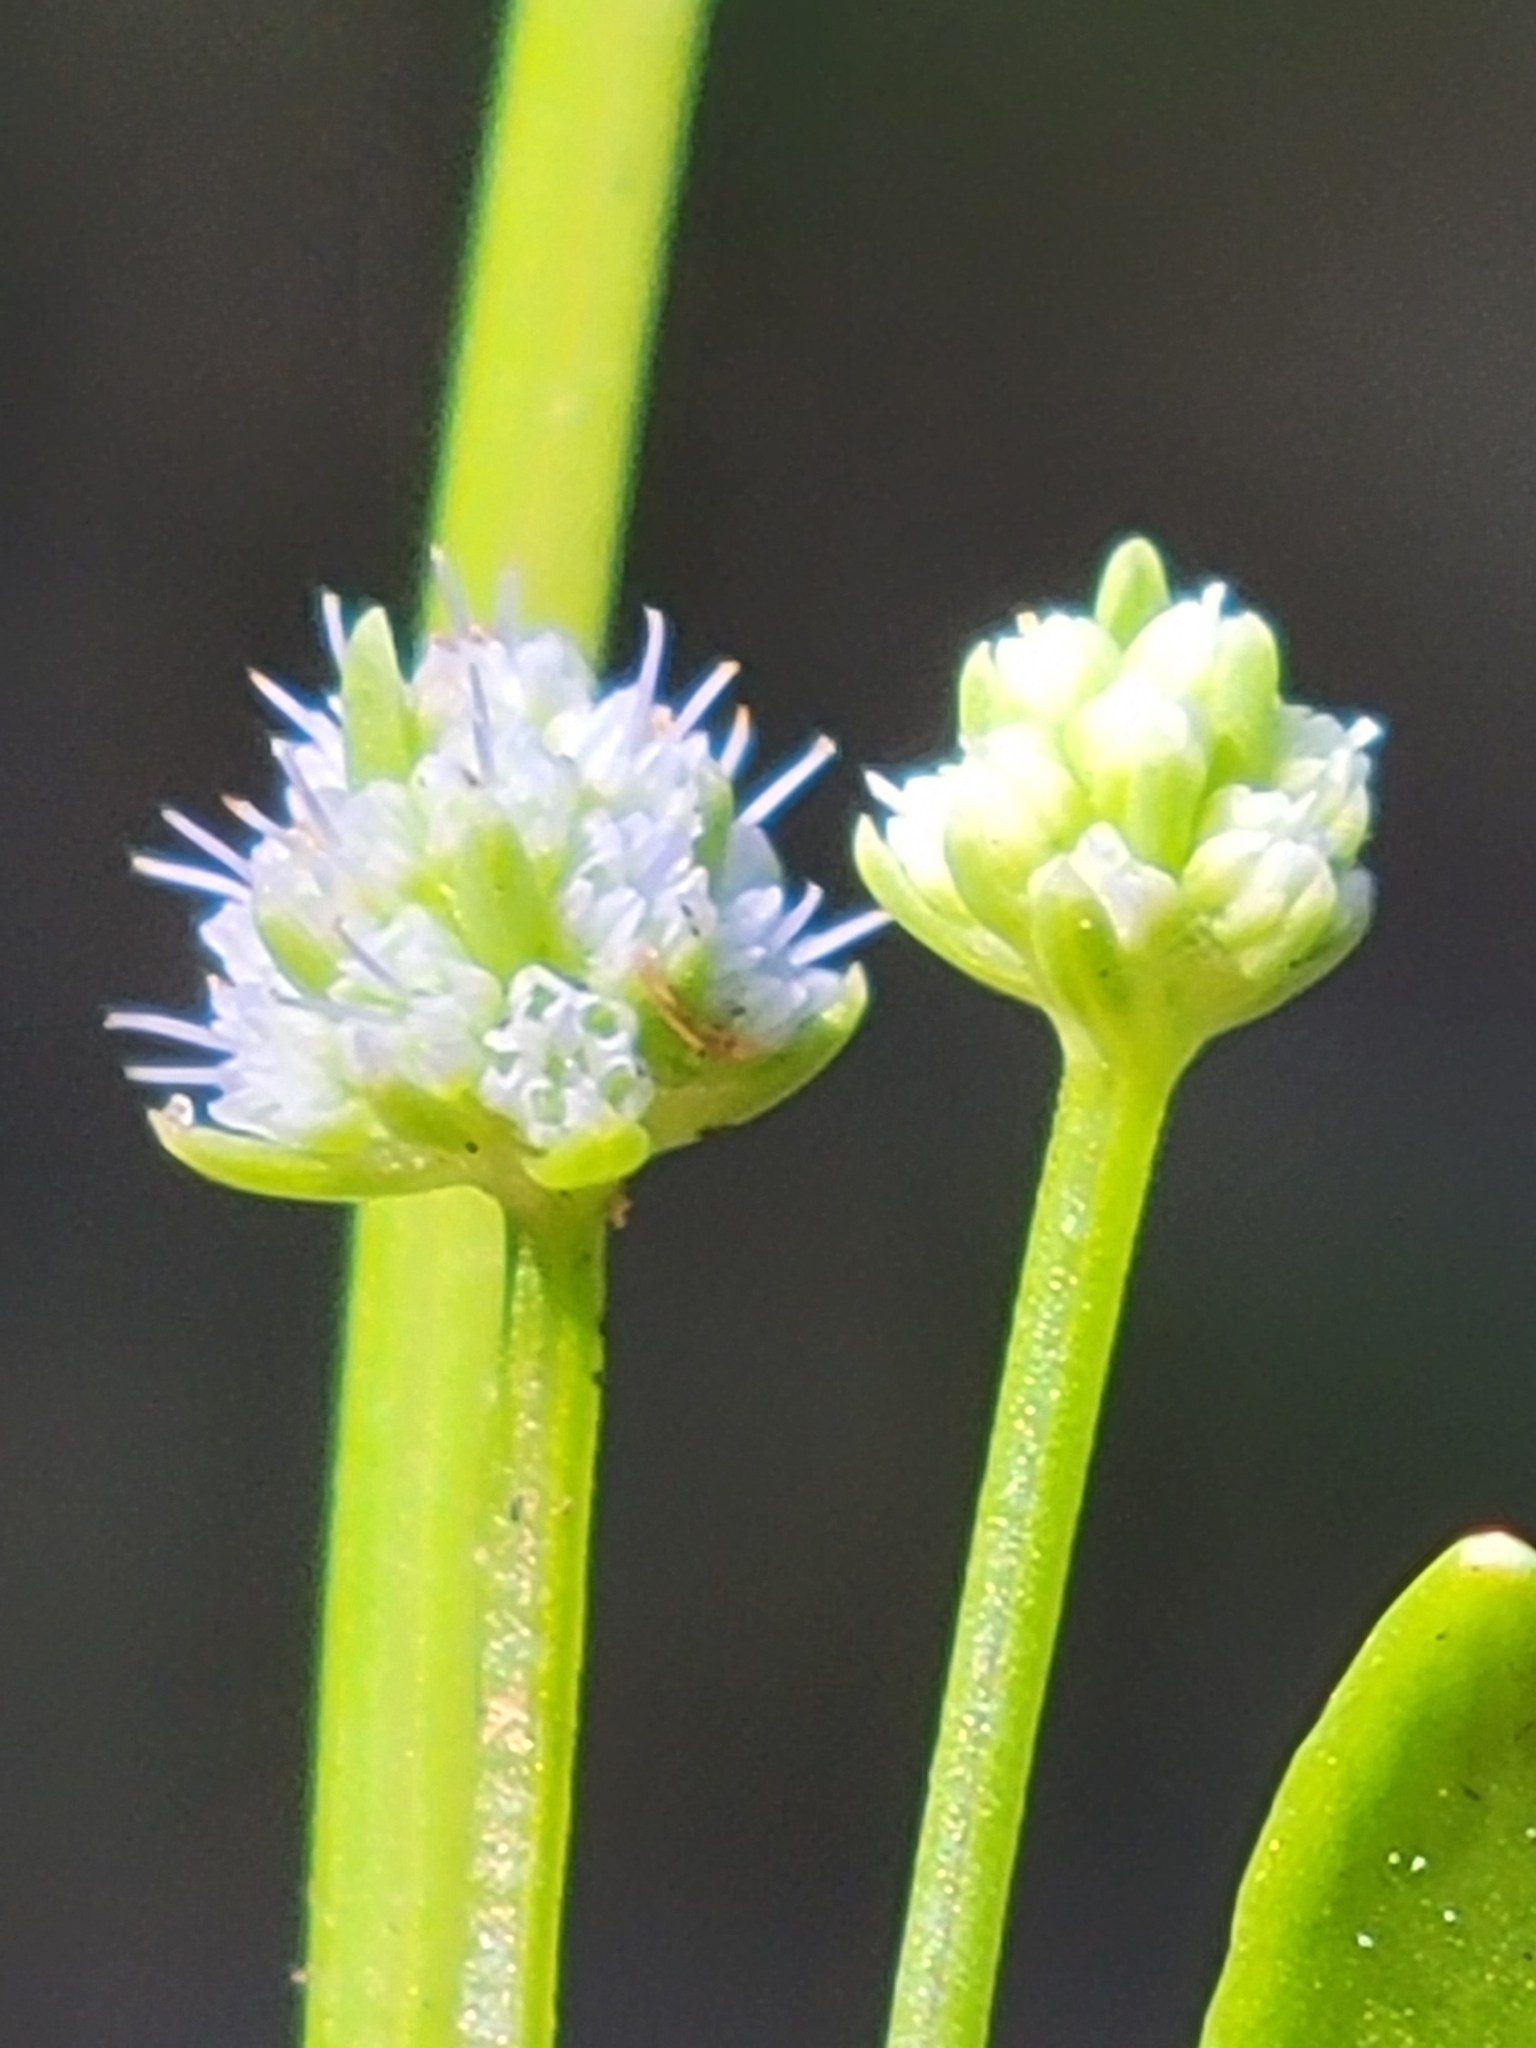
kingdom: Plantae
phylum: Tracheophyta
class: Magnoliopsida
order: Apiales
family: Apiaceae
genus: Eryngium
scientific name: Eryngium baldwinii
